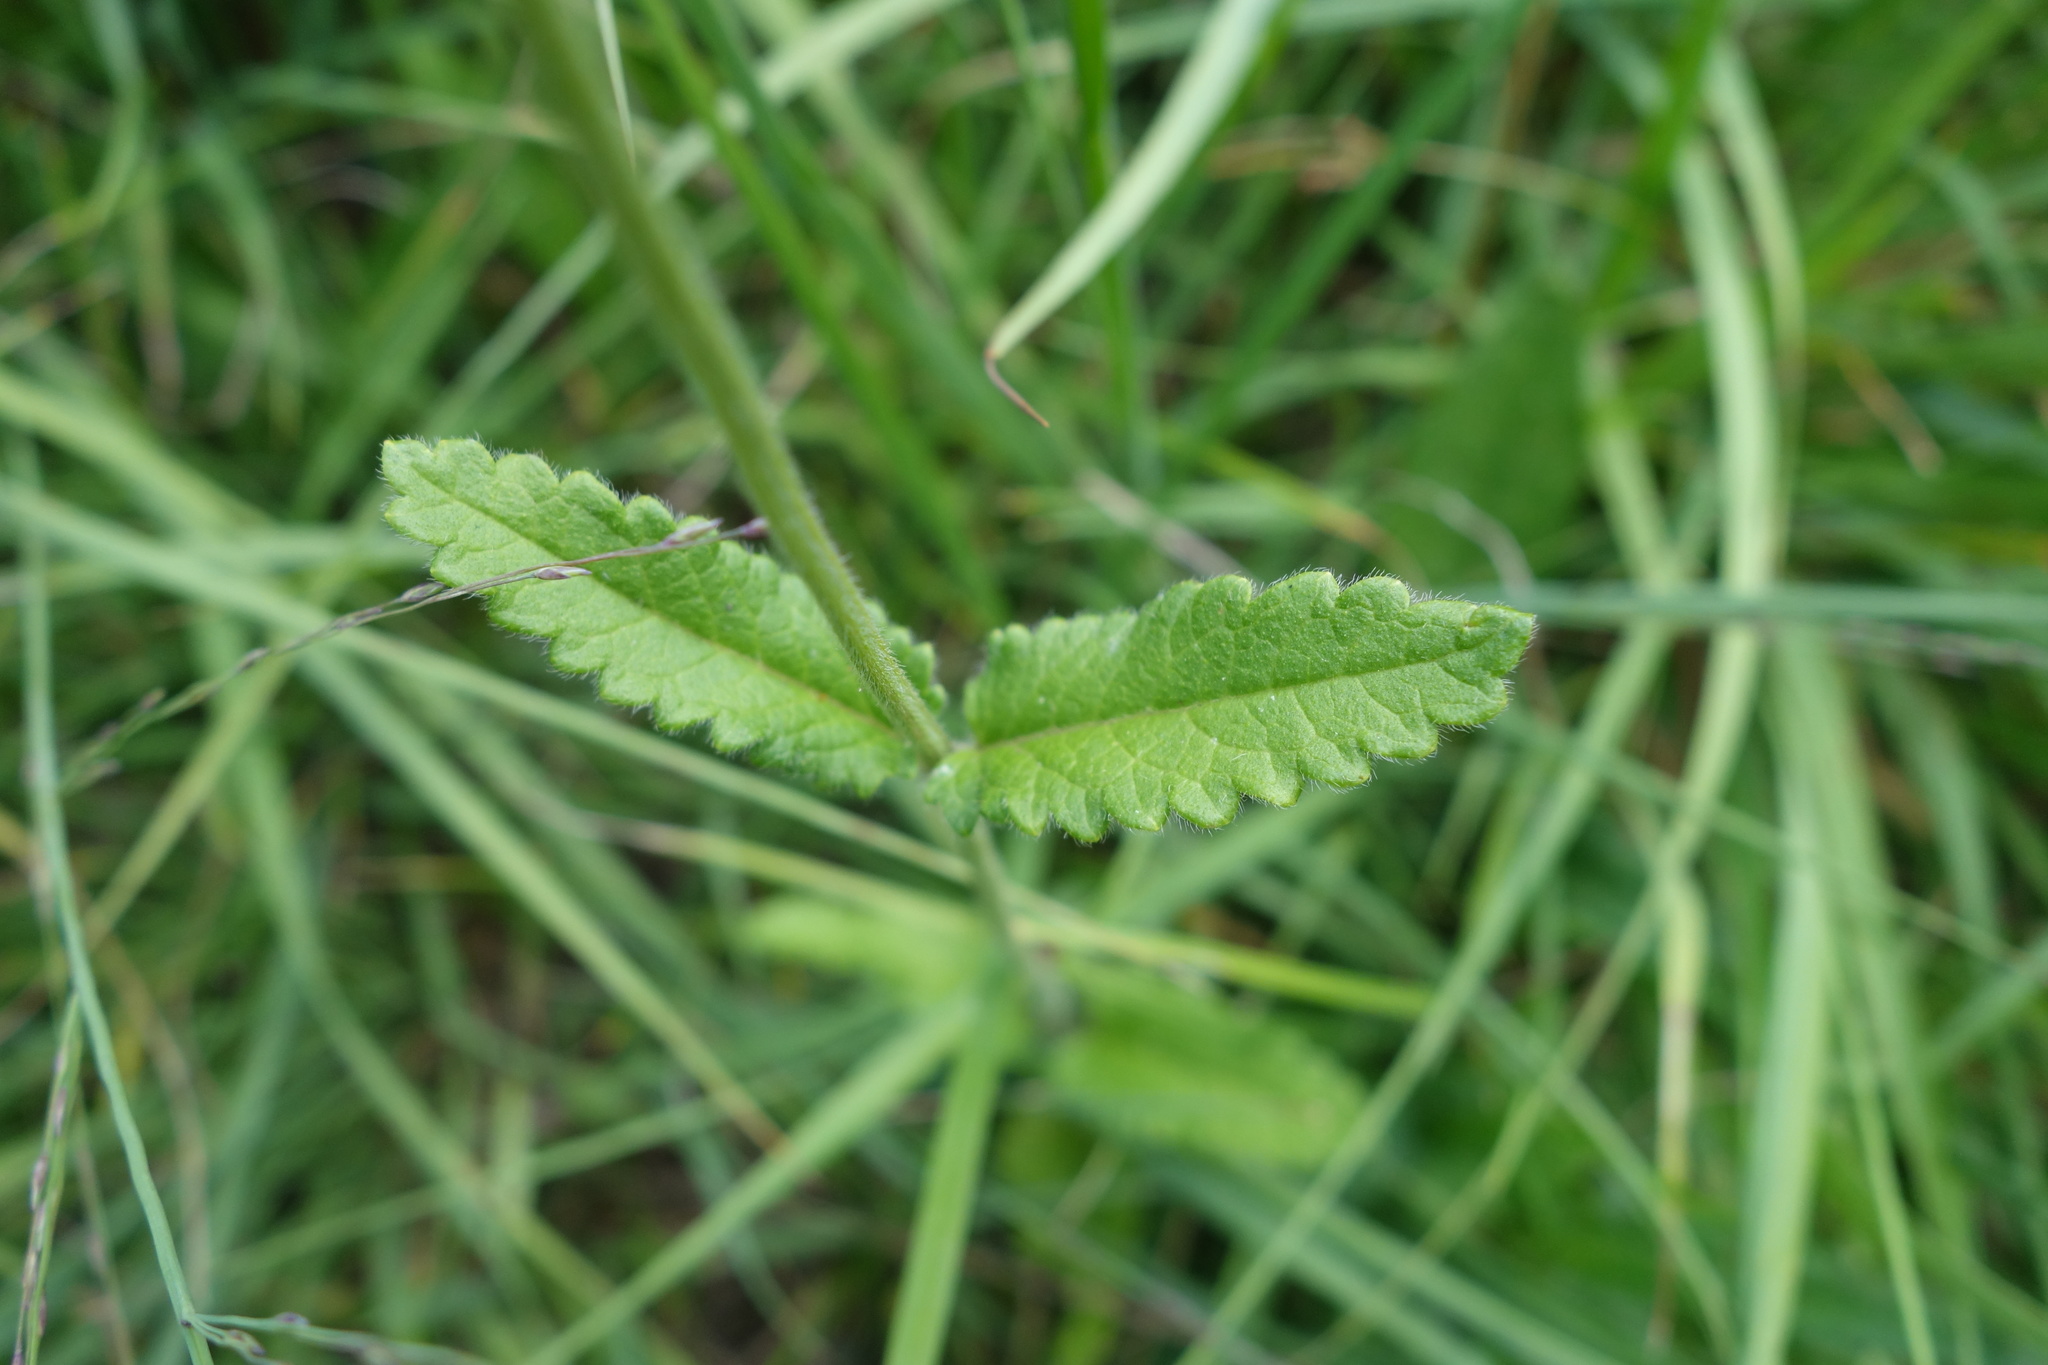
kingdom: Plantae
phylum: Tracheophyta
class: Magnoliopsida
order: Lamiales
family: Lamiaceae
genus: Betonica
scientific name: Betonica officinalis
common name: Bishop's-wort
